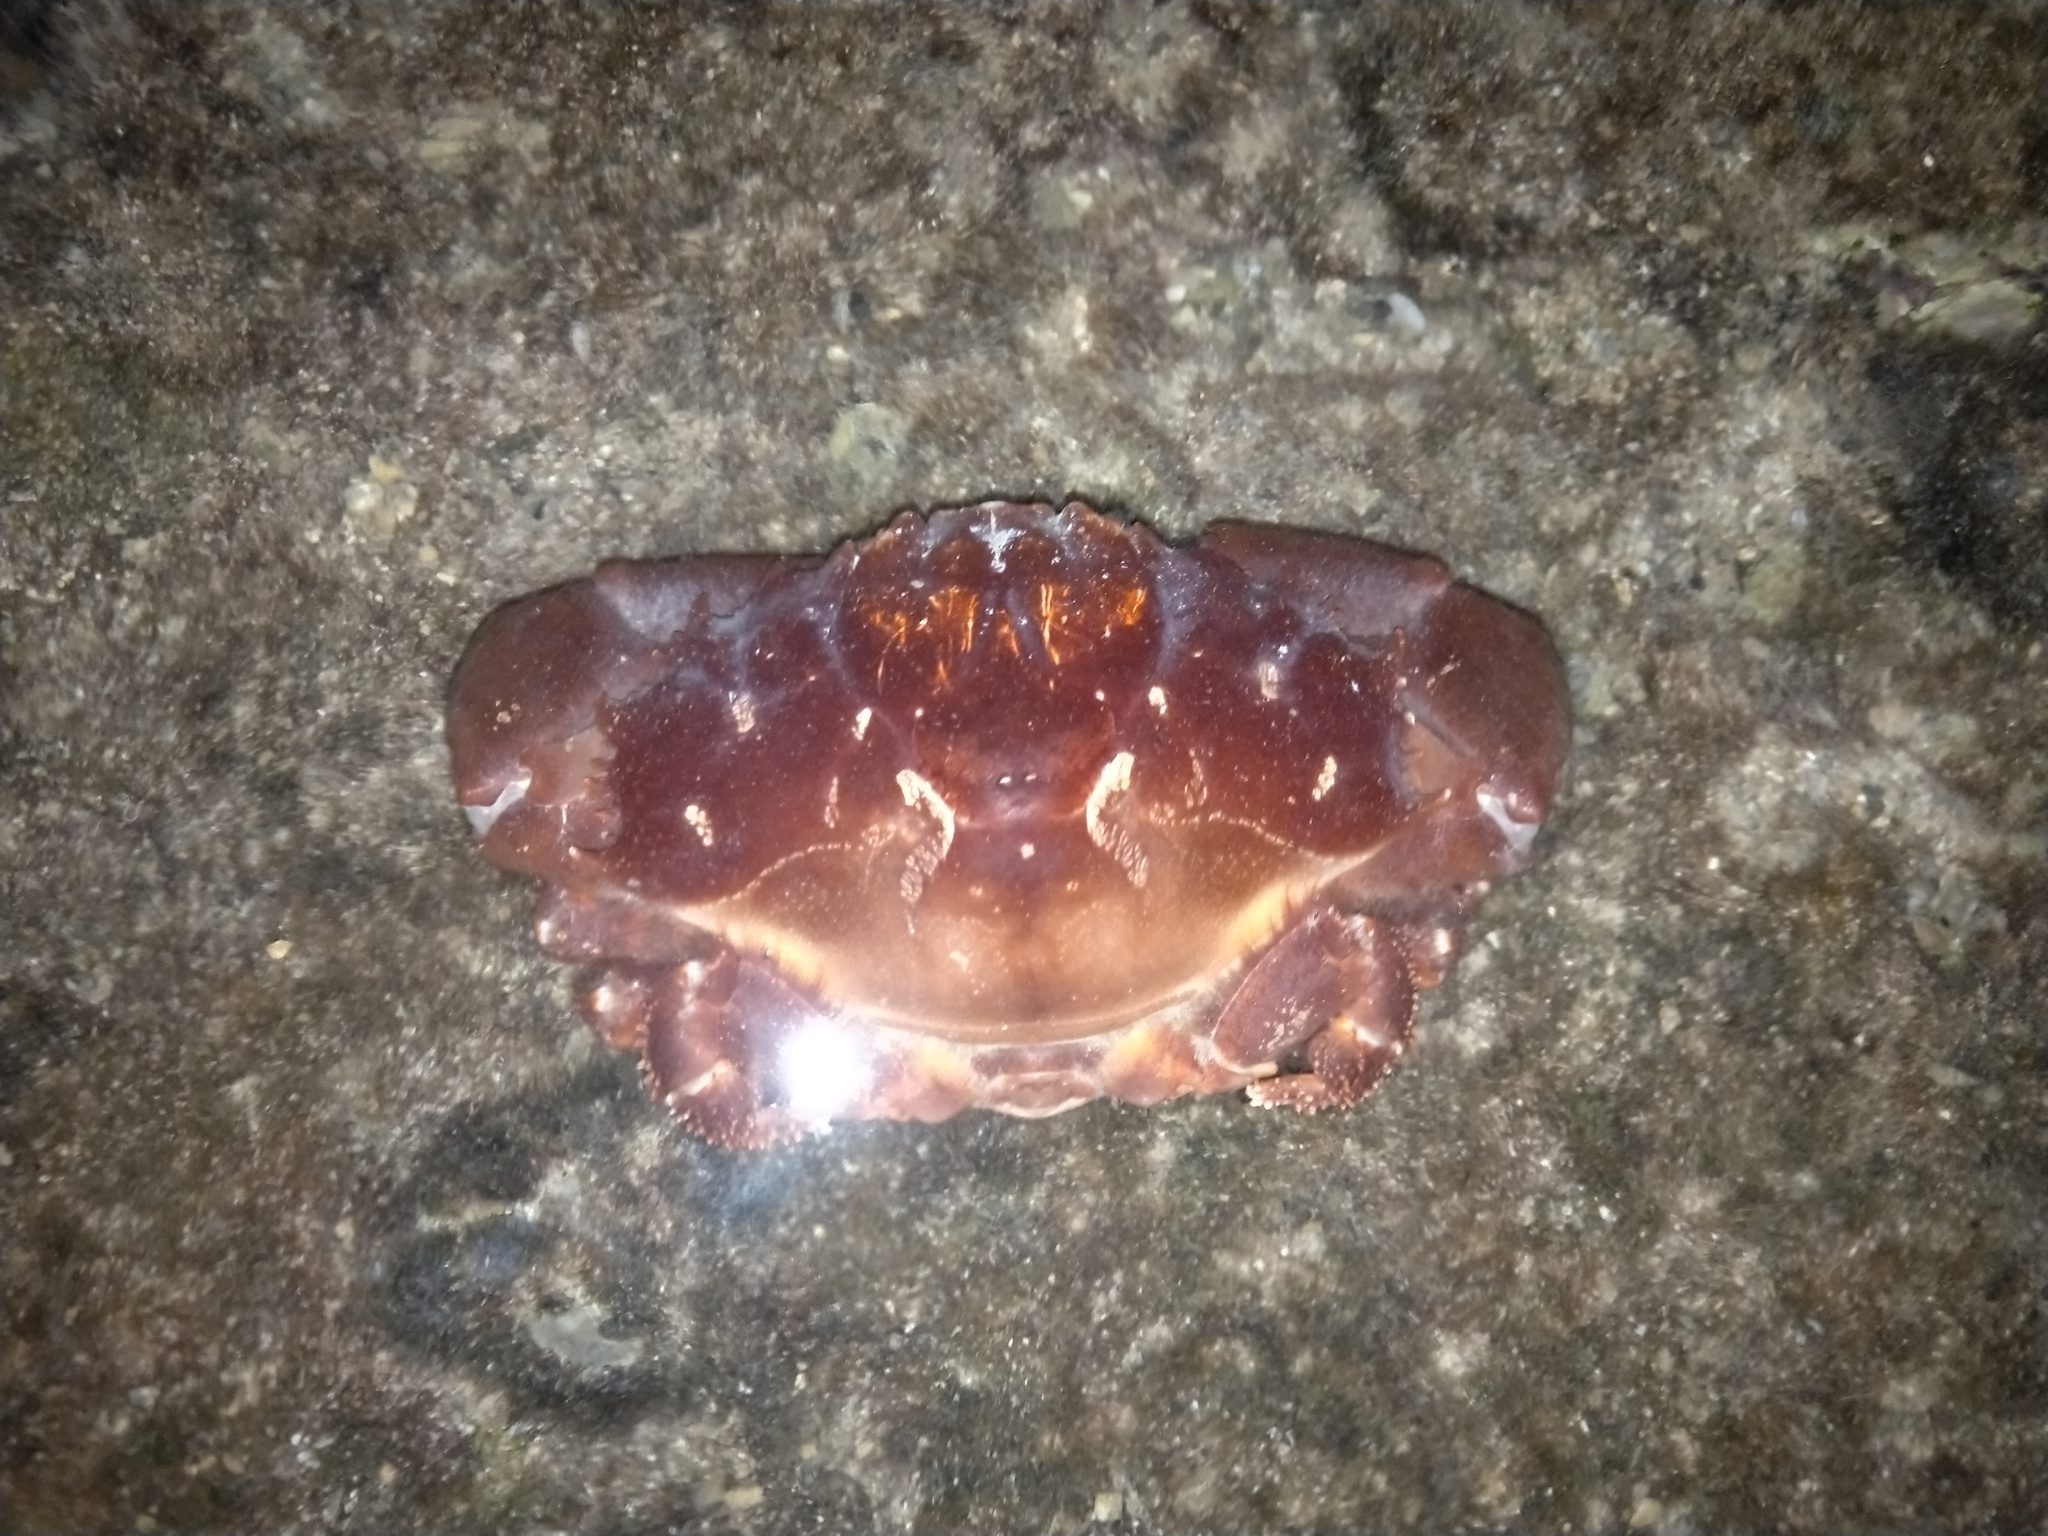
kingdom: Animalia
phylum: Arthropoda
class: Malacostraca
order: Decapoda
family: Xanthidae
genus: Etisus
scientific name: Etisus dentatus
